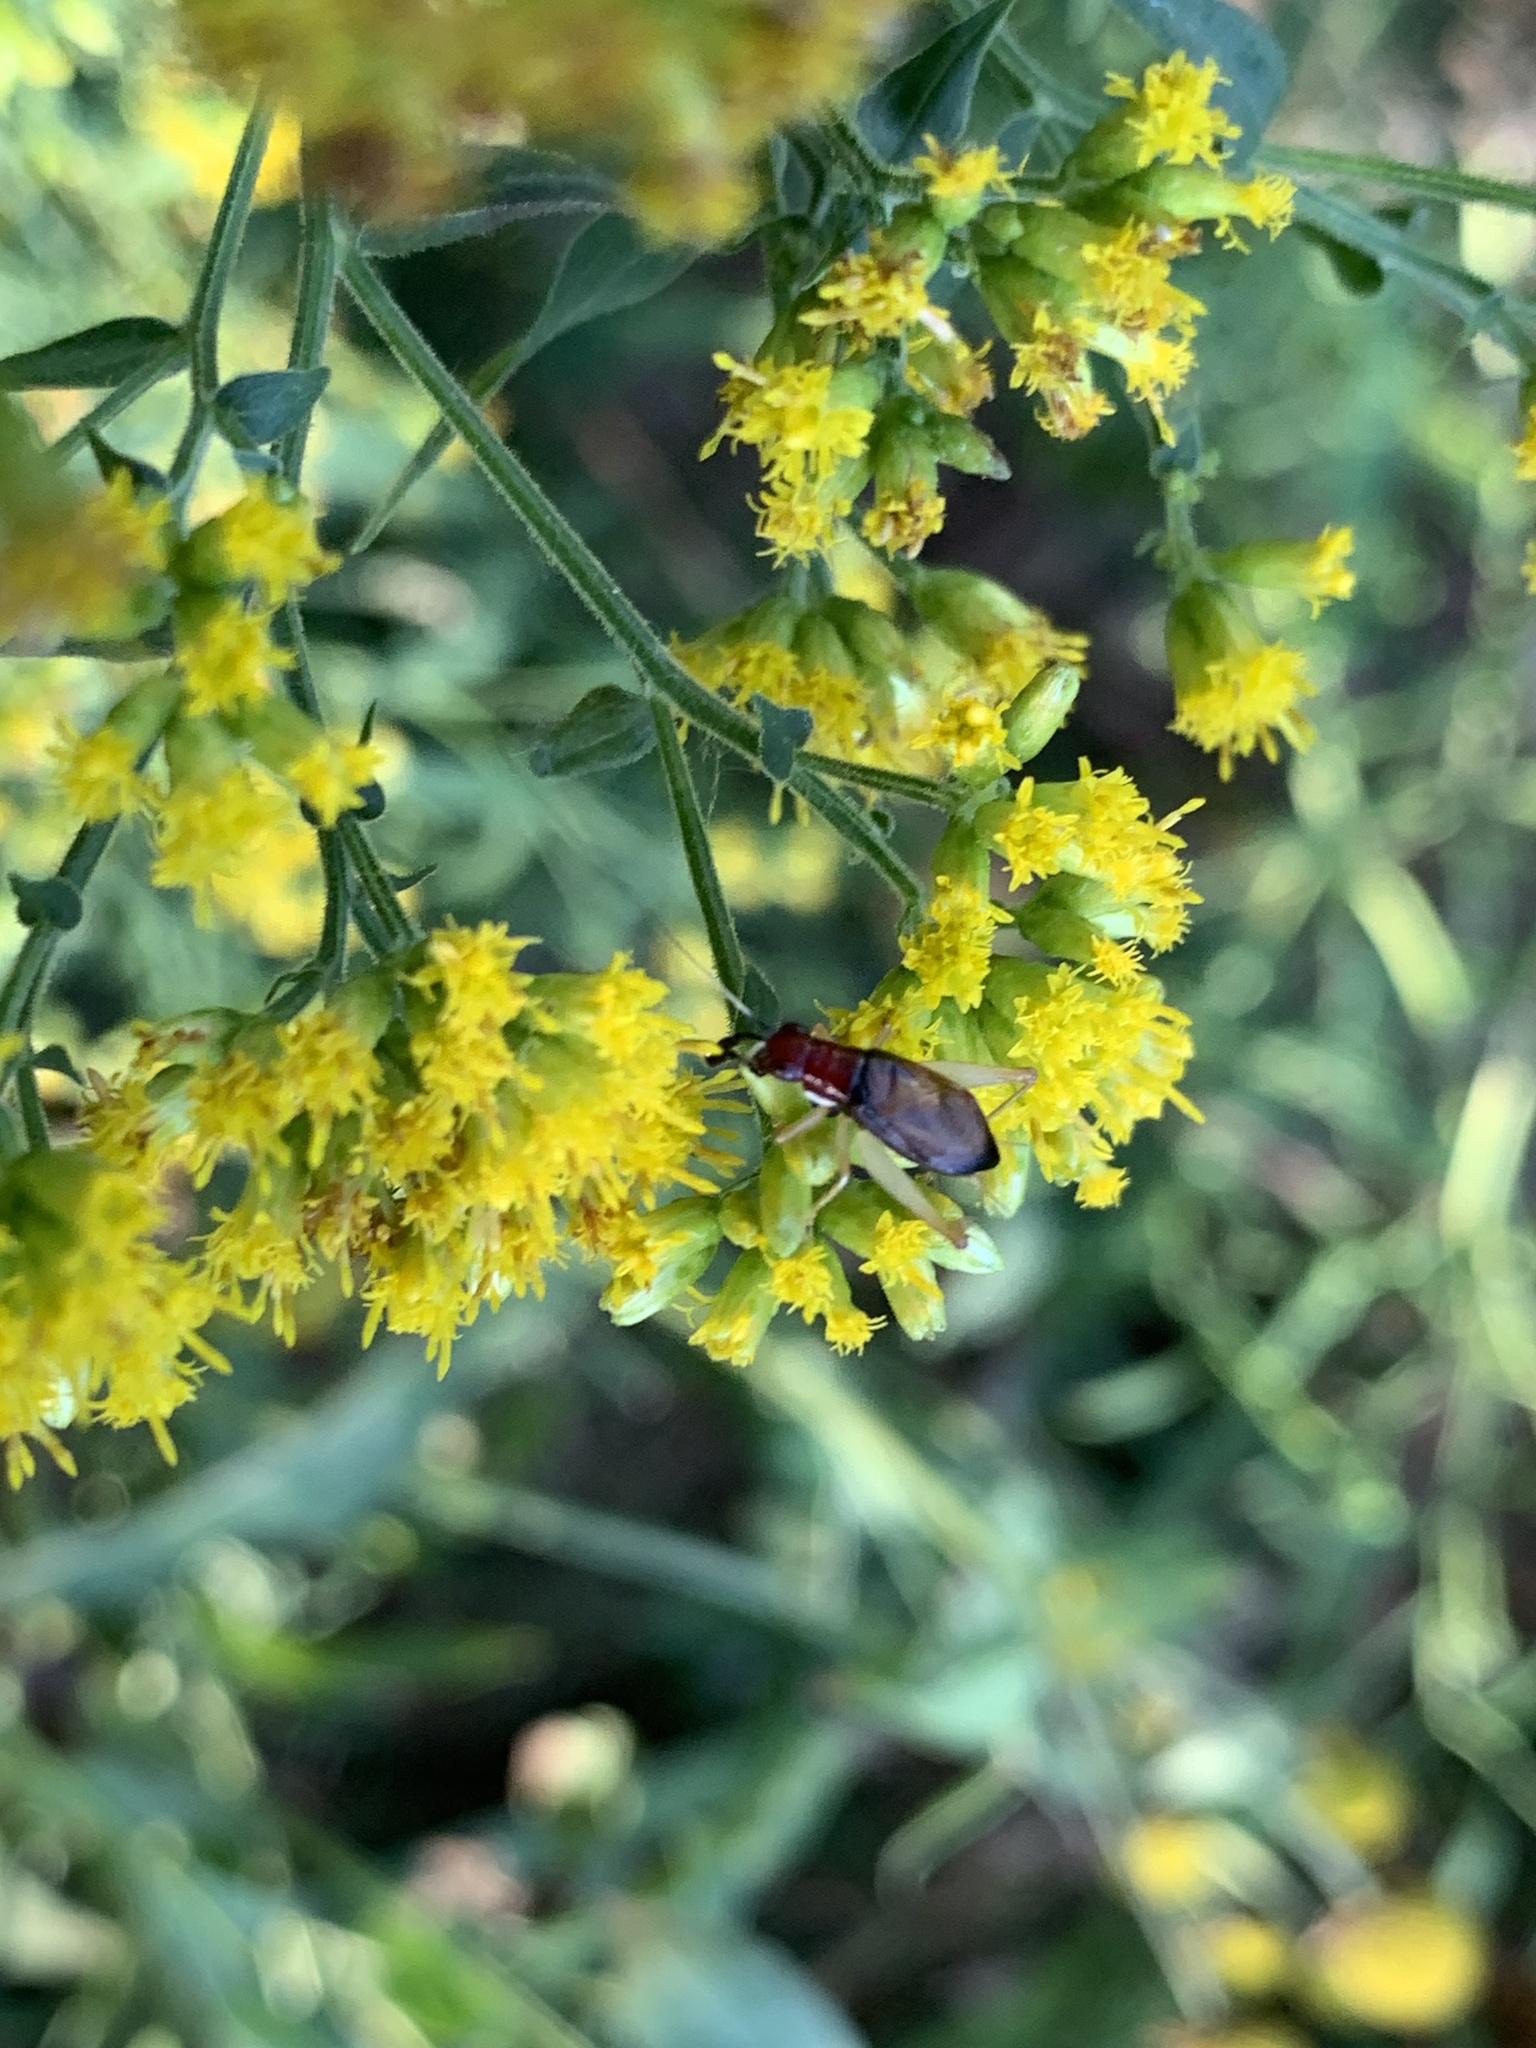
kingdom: Animalia
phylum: Arthropoda
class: Insecta
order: Orthoptera
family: Trigonidiidae
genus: Phyllopalpus
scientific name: Phyllopalpus pulchellus
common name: Handsome trig
